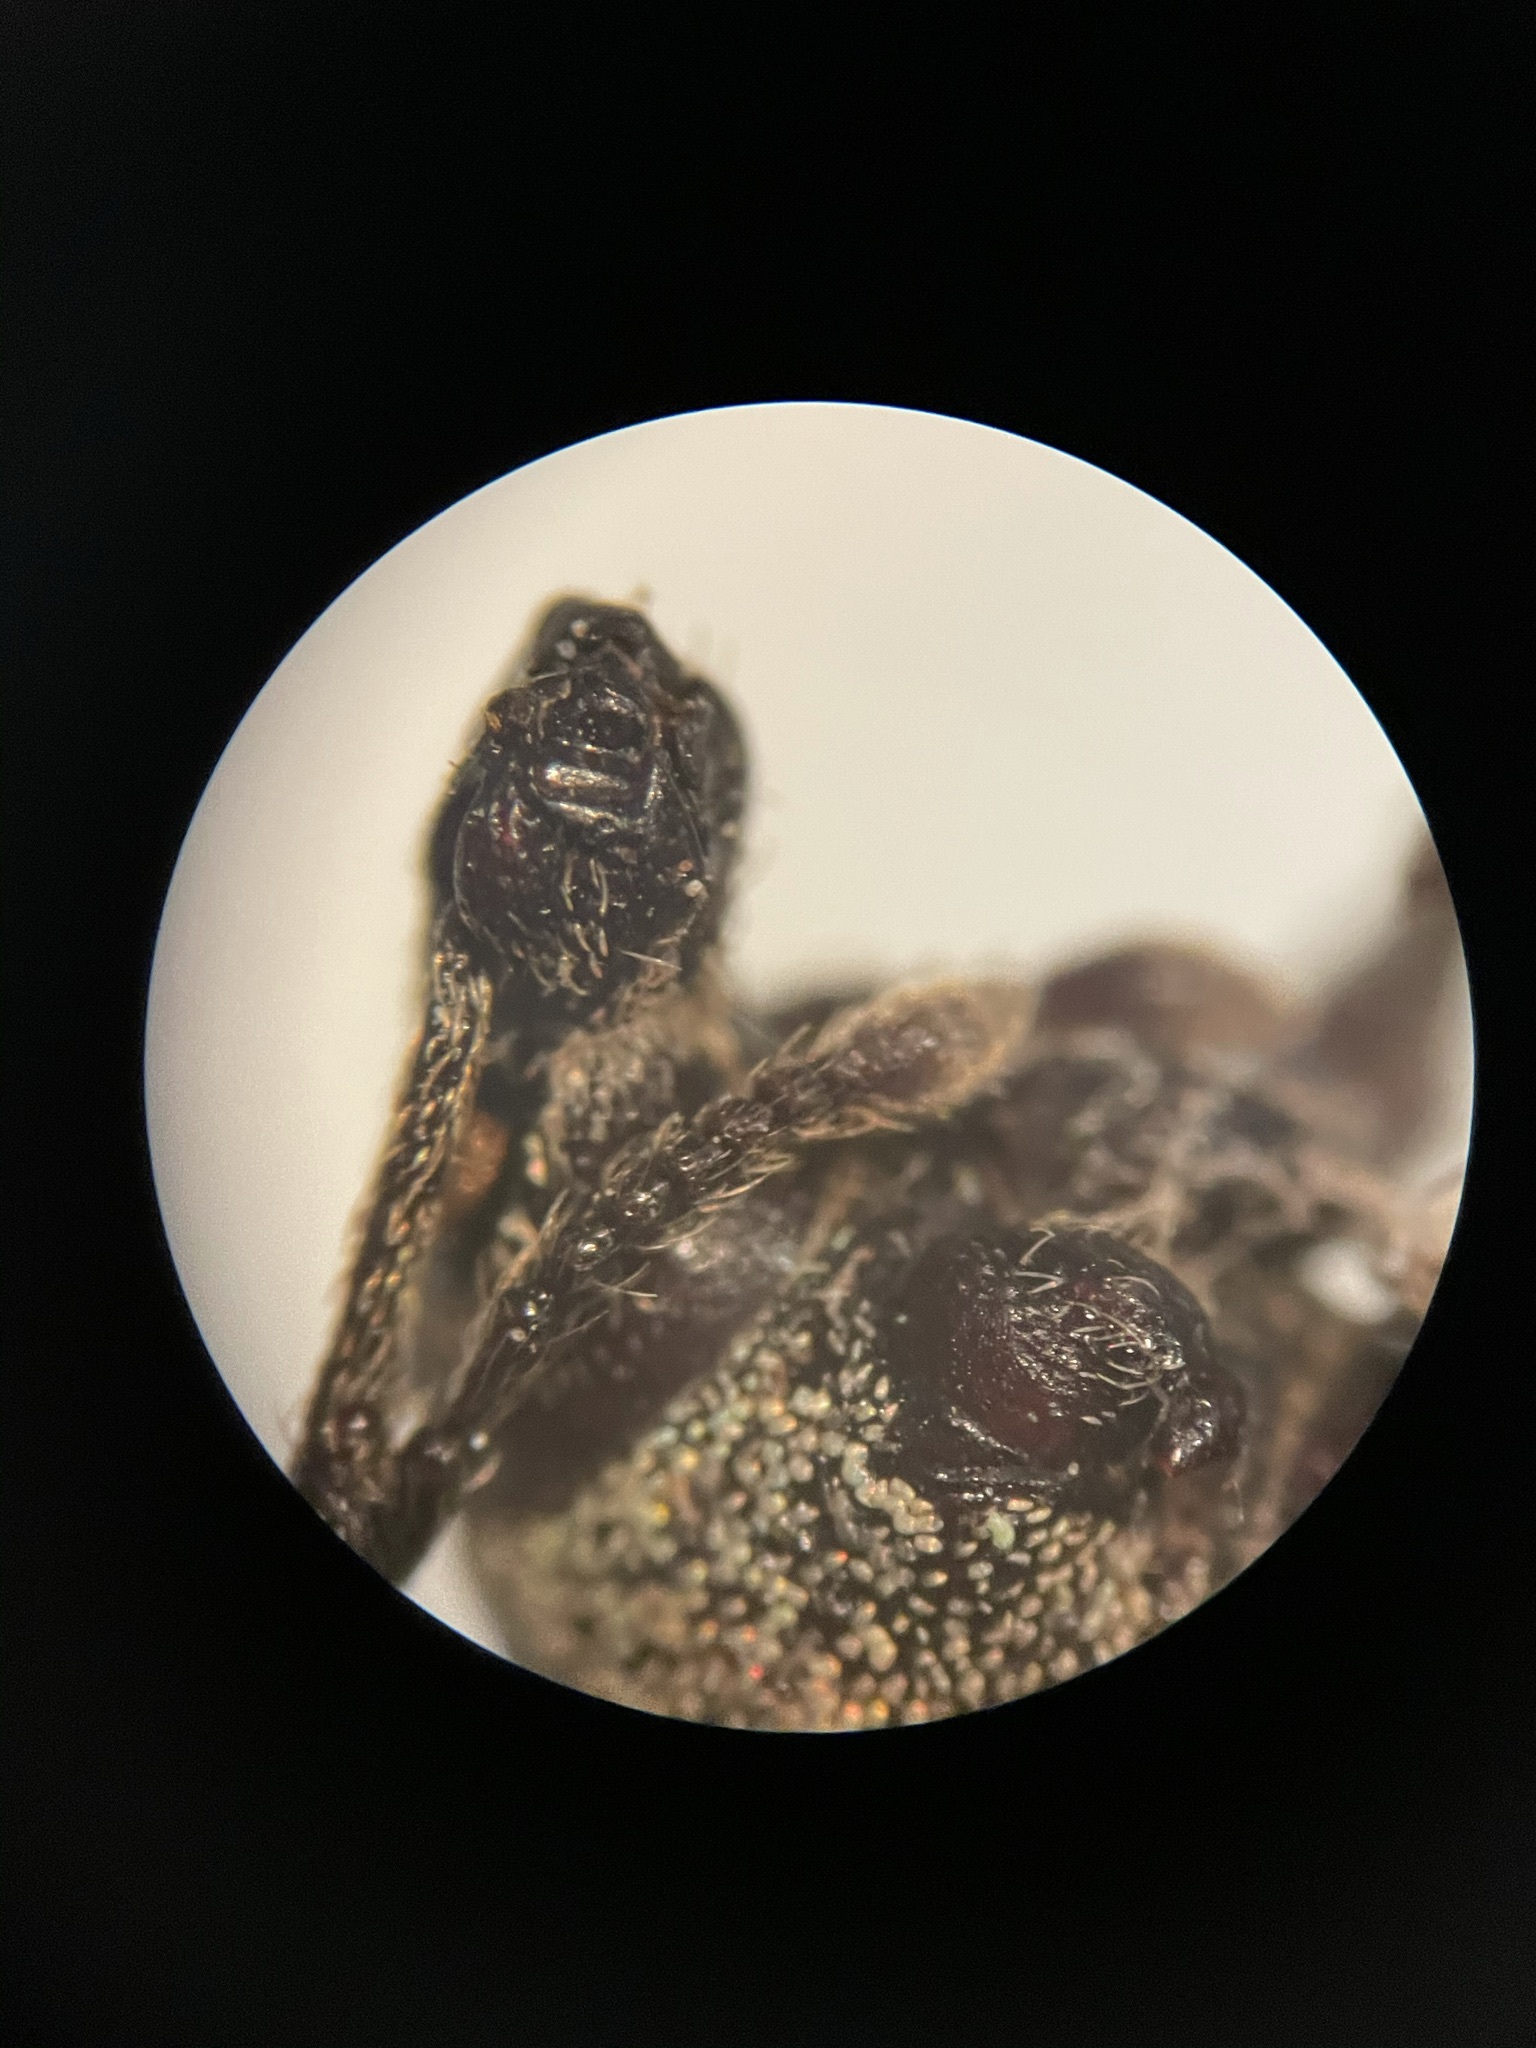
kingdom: Animalia
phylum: Arthropoda
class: Insecta
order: Coleoptera
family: Curculionidae
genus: Otiorhynchus
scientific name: Otiorhynchus singularis
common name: Clay-coloured weevil
